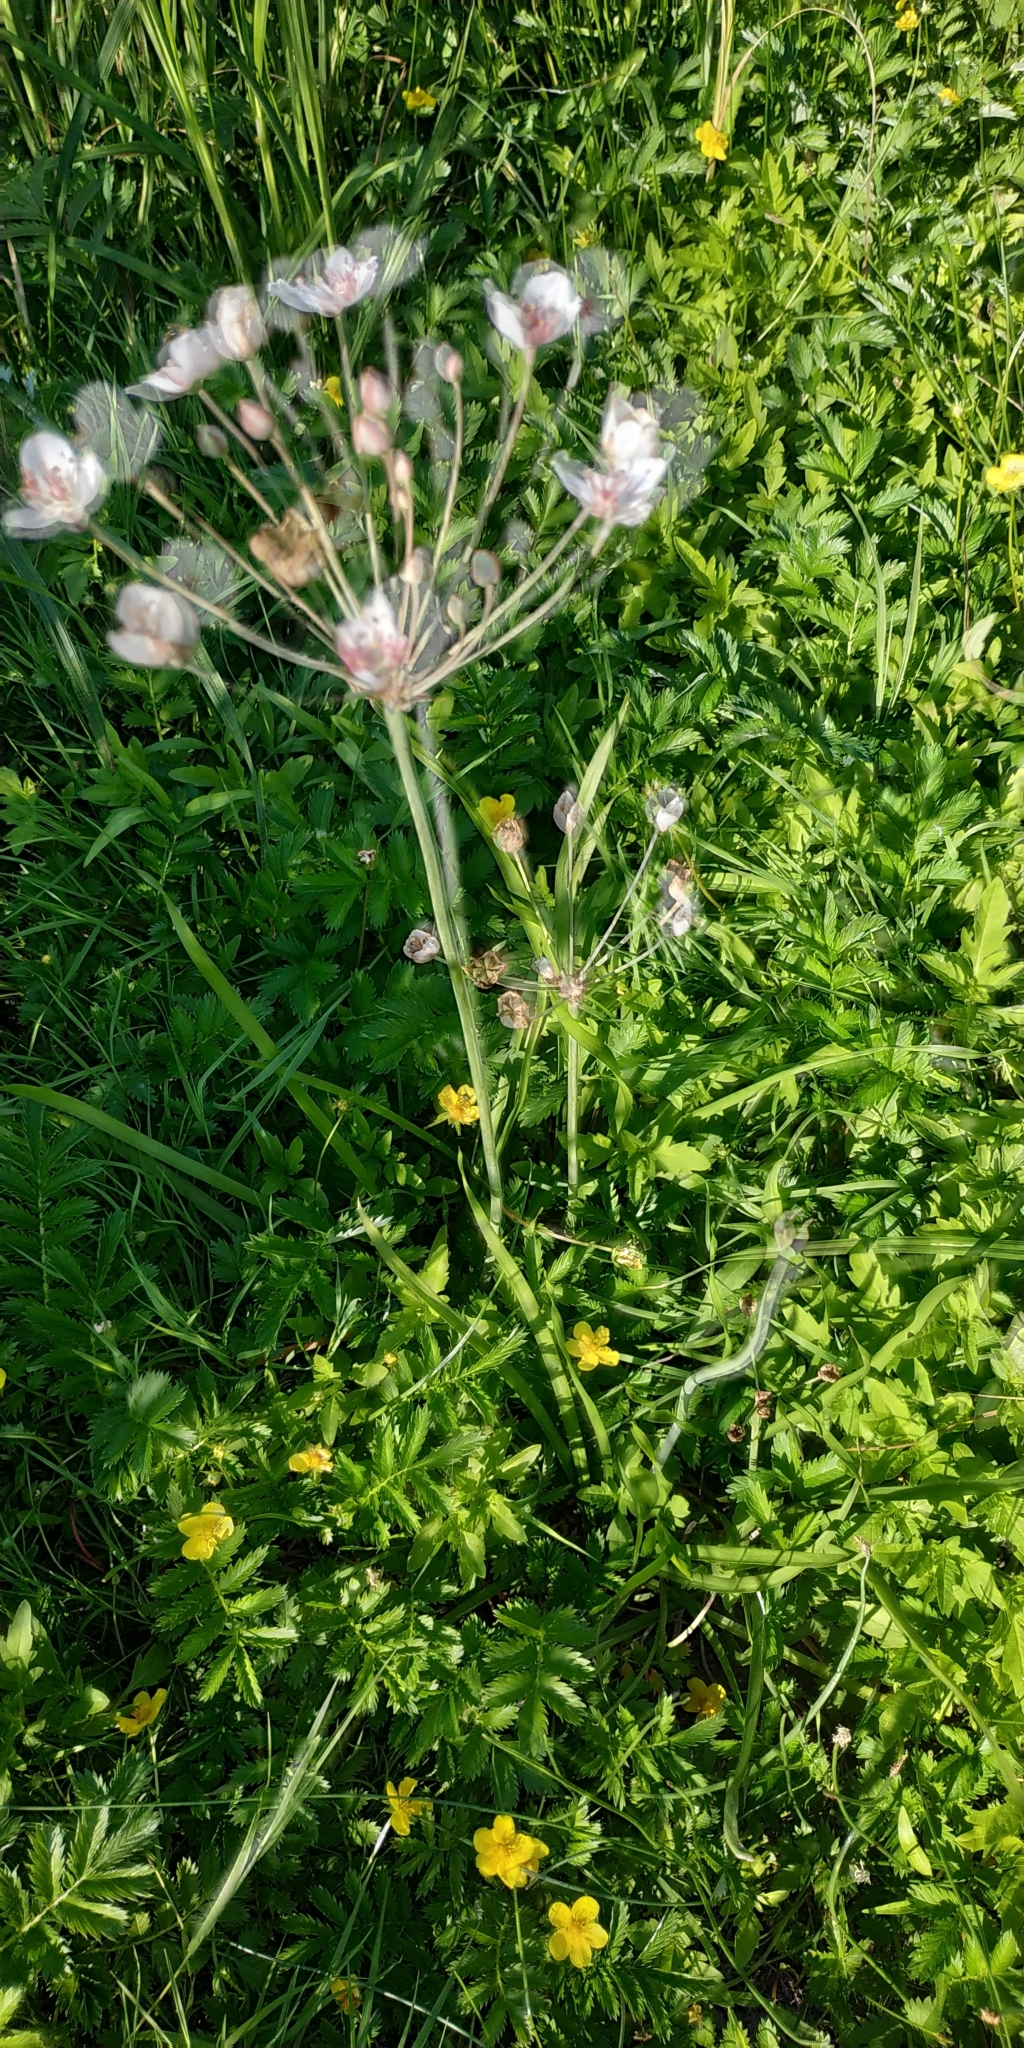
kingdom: Plantae
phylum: Tracheophyta
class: Liliopsida
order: Alismatales
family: Butomaceae
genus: Butomus
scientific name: Butomus umbellatus
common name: Flowering-rush
